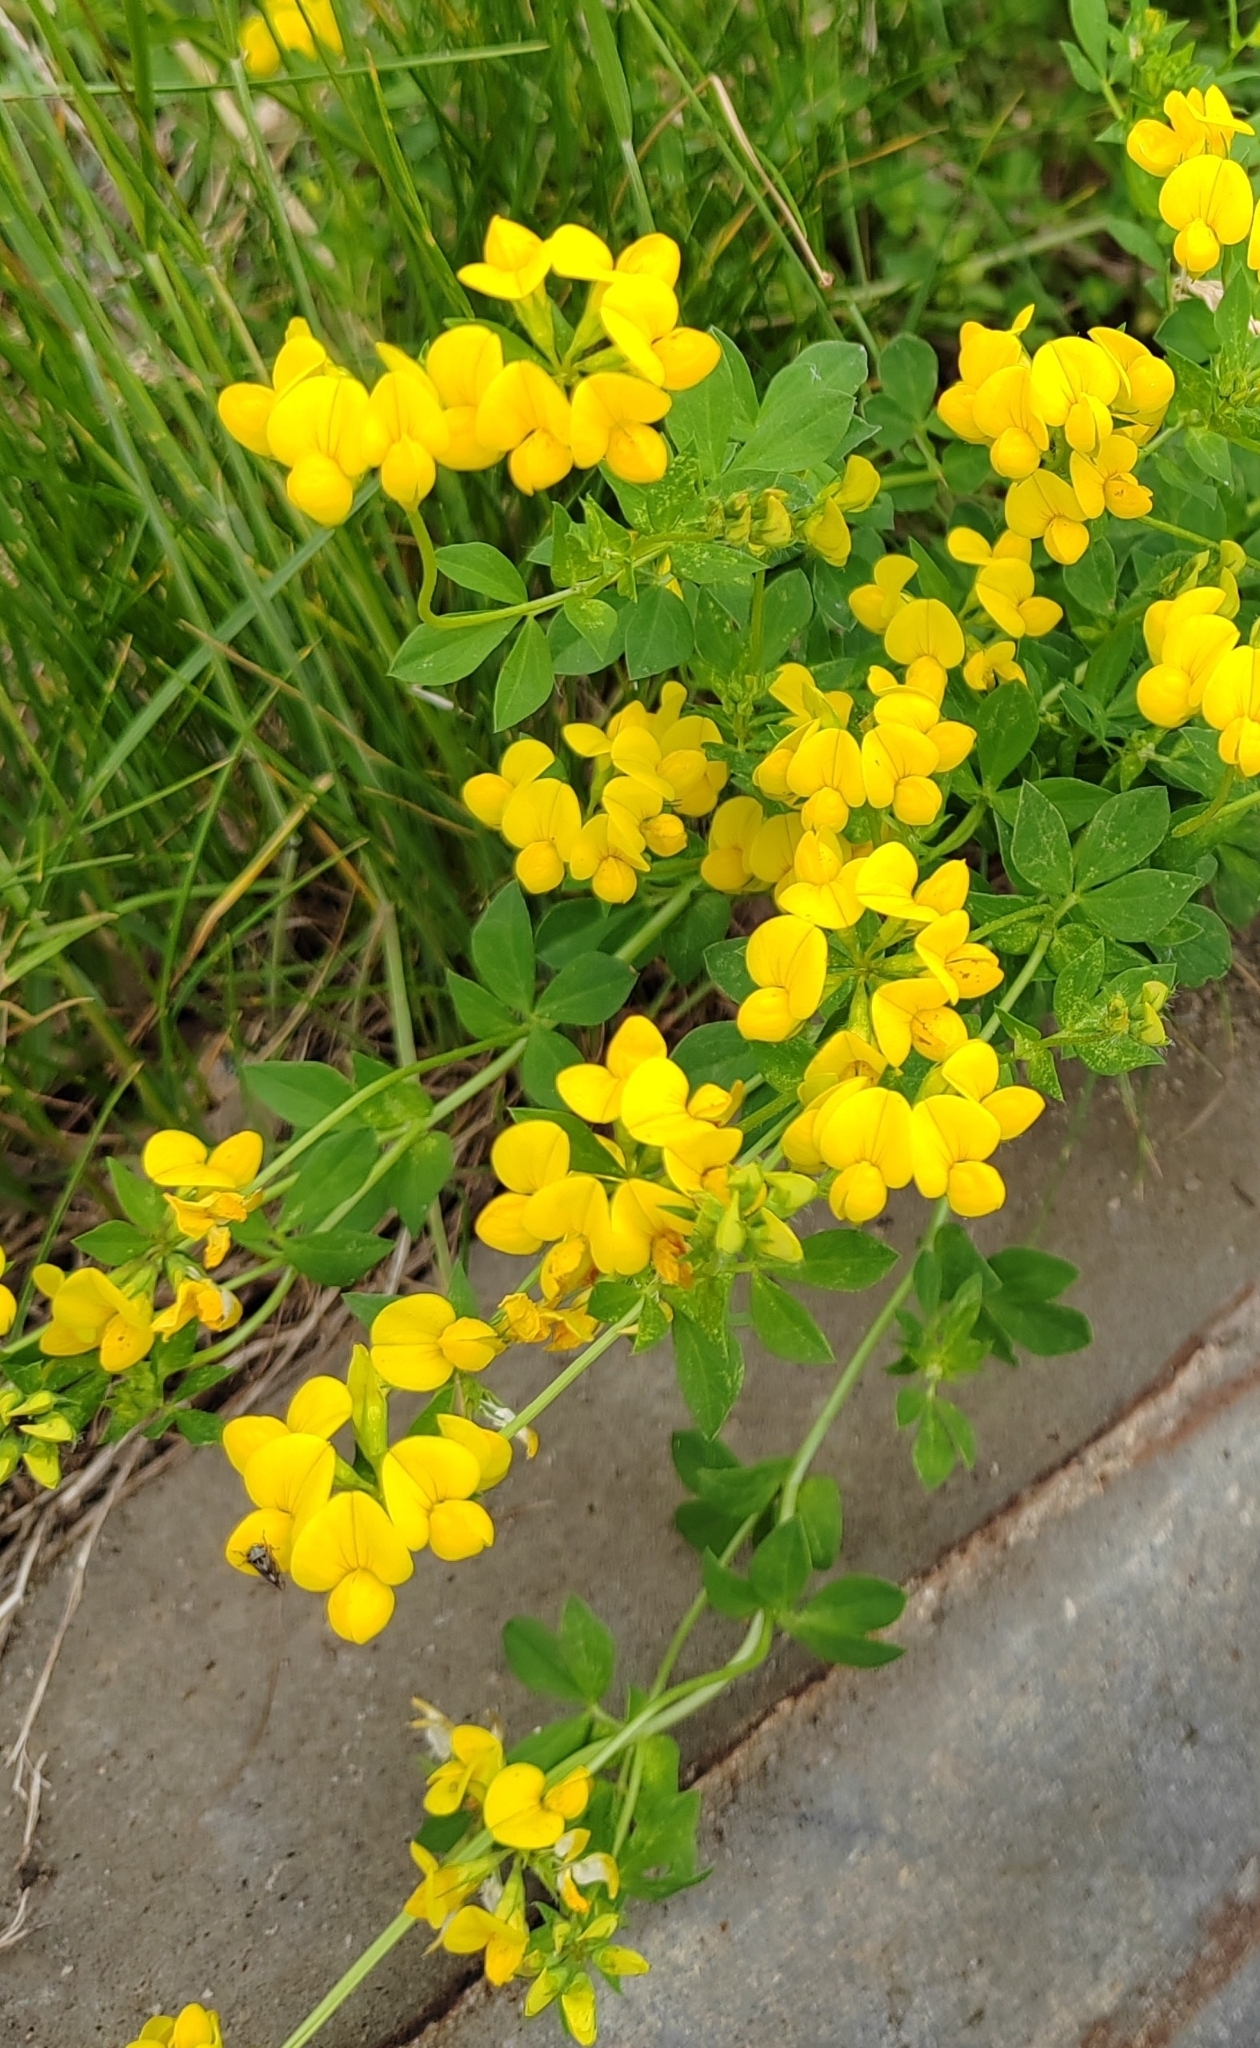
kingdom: Plantae
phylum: Tracheophyta
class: Magnoliopsida
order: Fabales
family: Fabaceae
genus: Lotus
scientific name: Lotus corniculatus
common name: Common bird's-foot-trefoil
